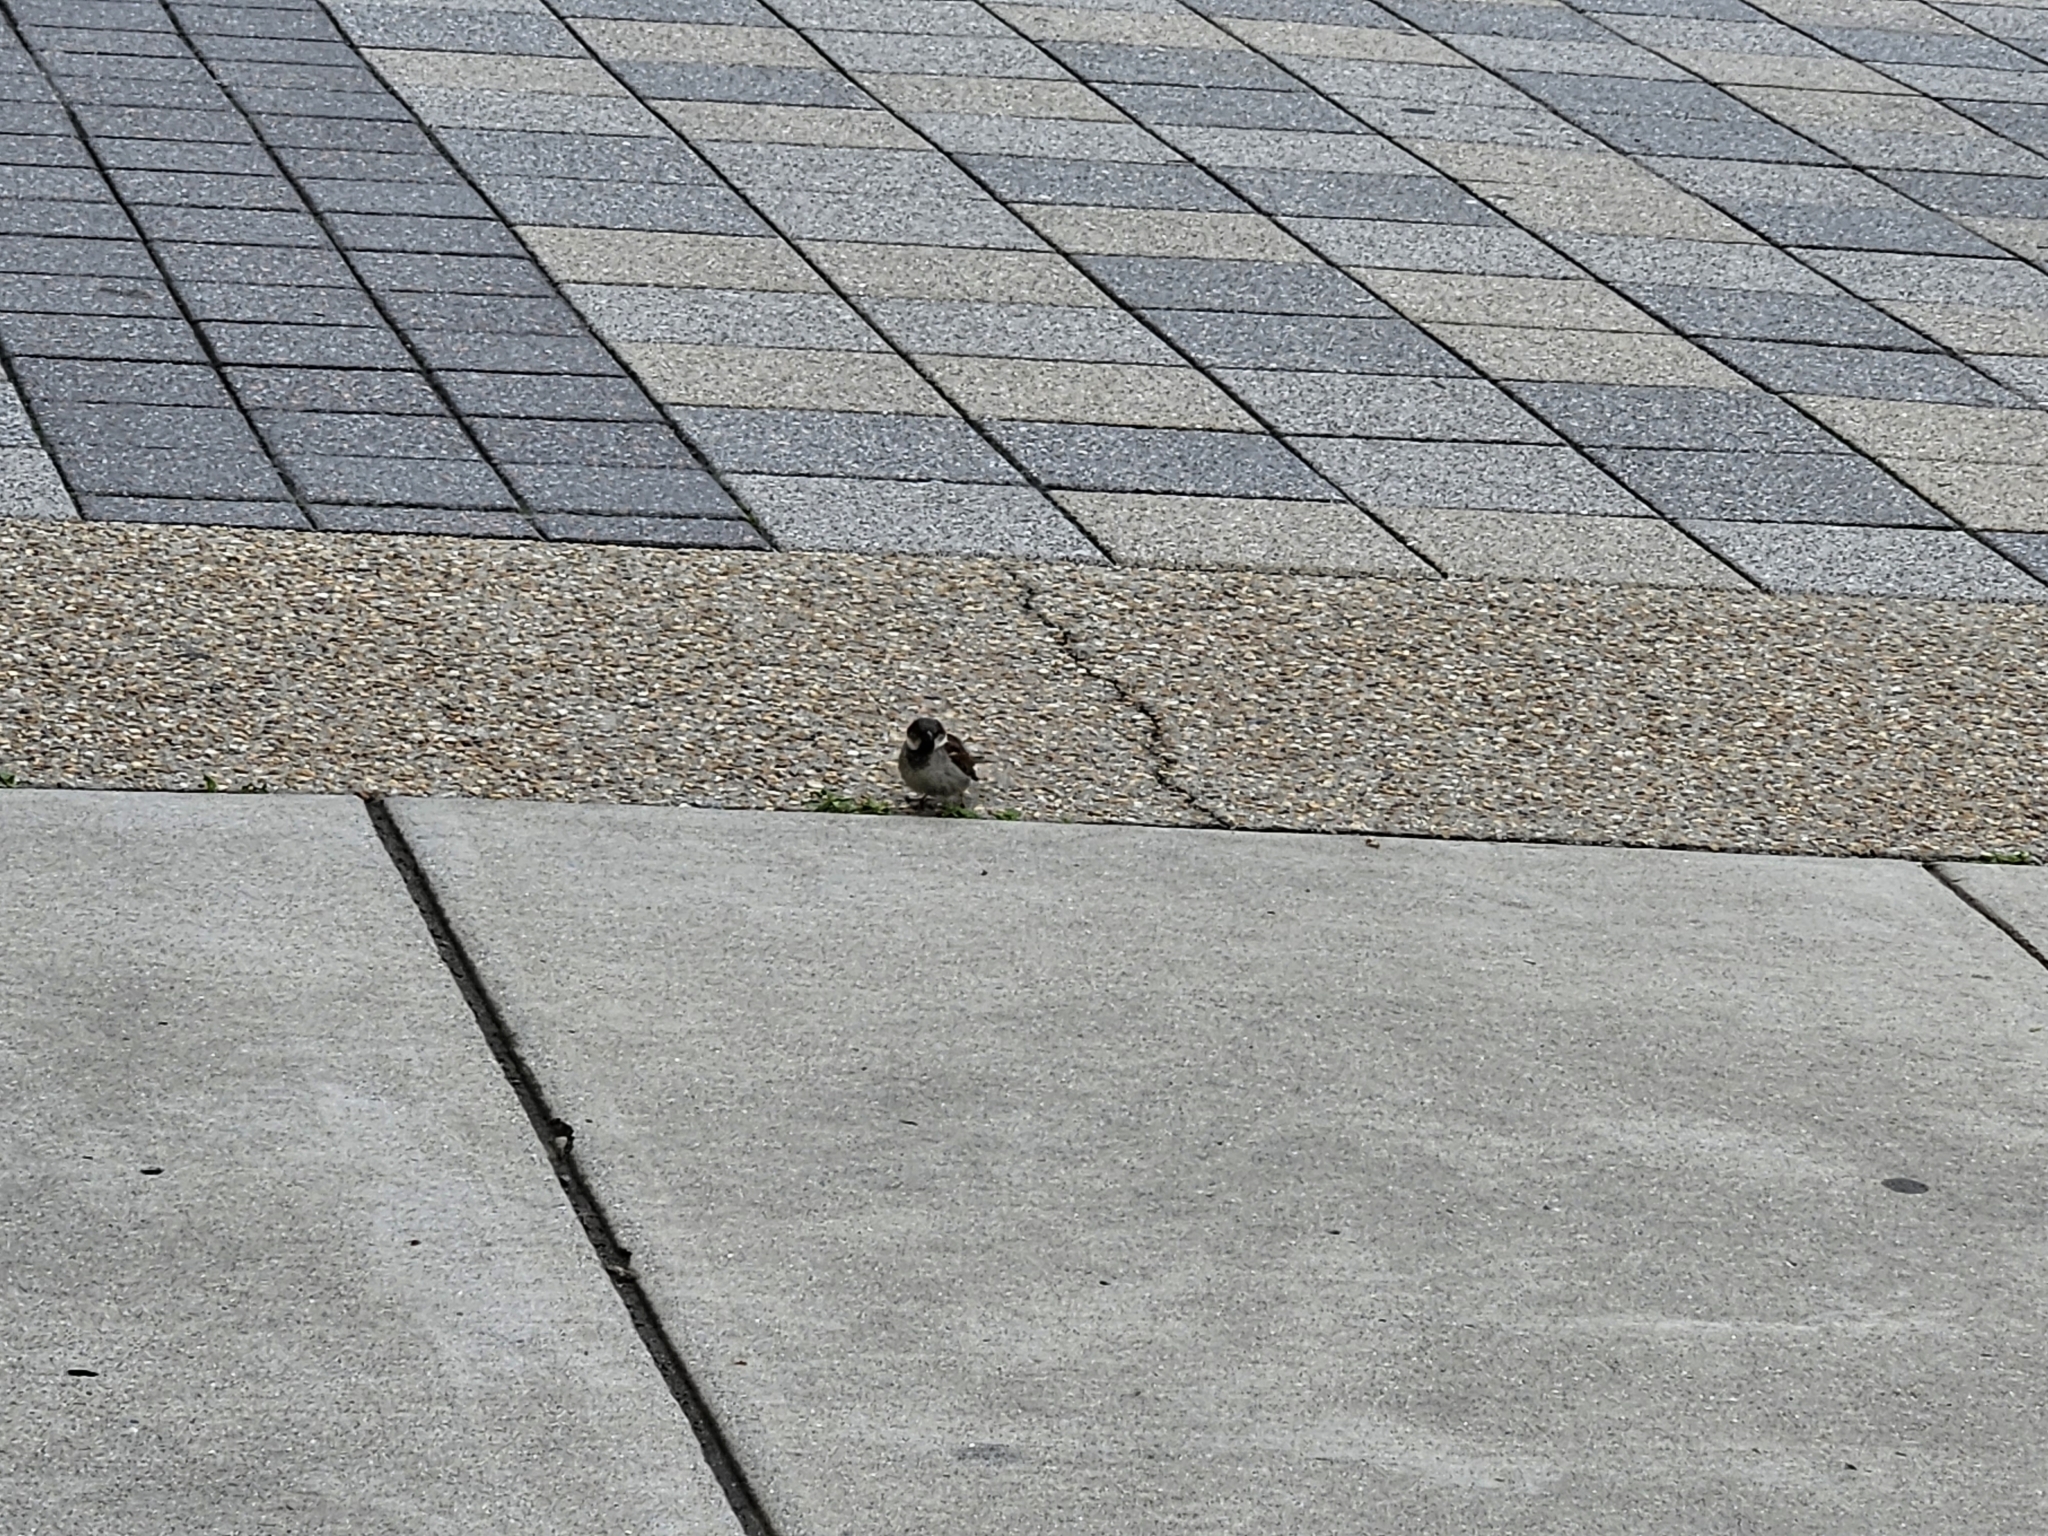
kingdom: Animalia
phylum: Chordata
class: Aves
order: Passeriformes
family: Passeridae
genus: Passer
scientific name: Passer domesticus
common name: House sparrow
